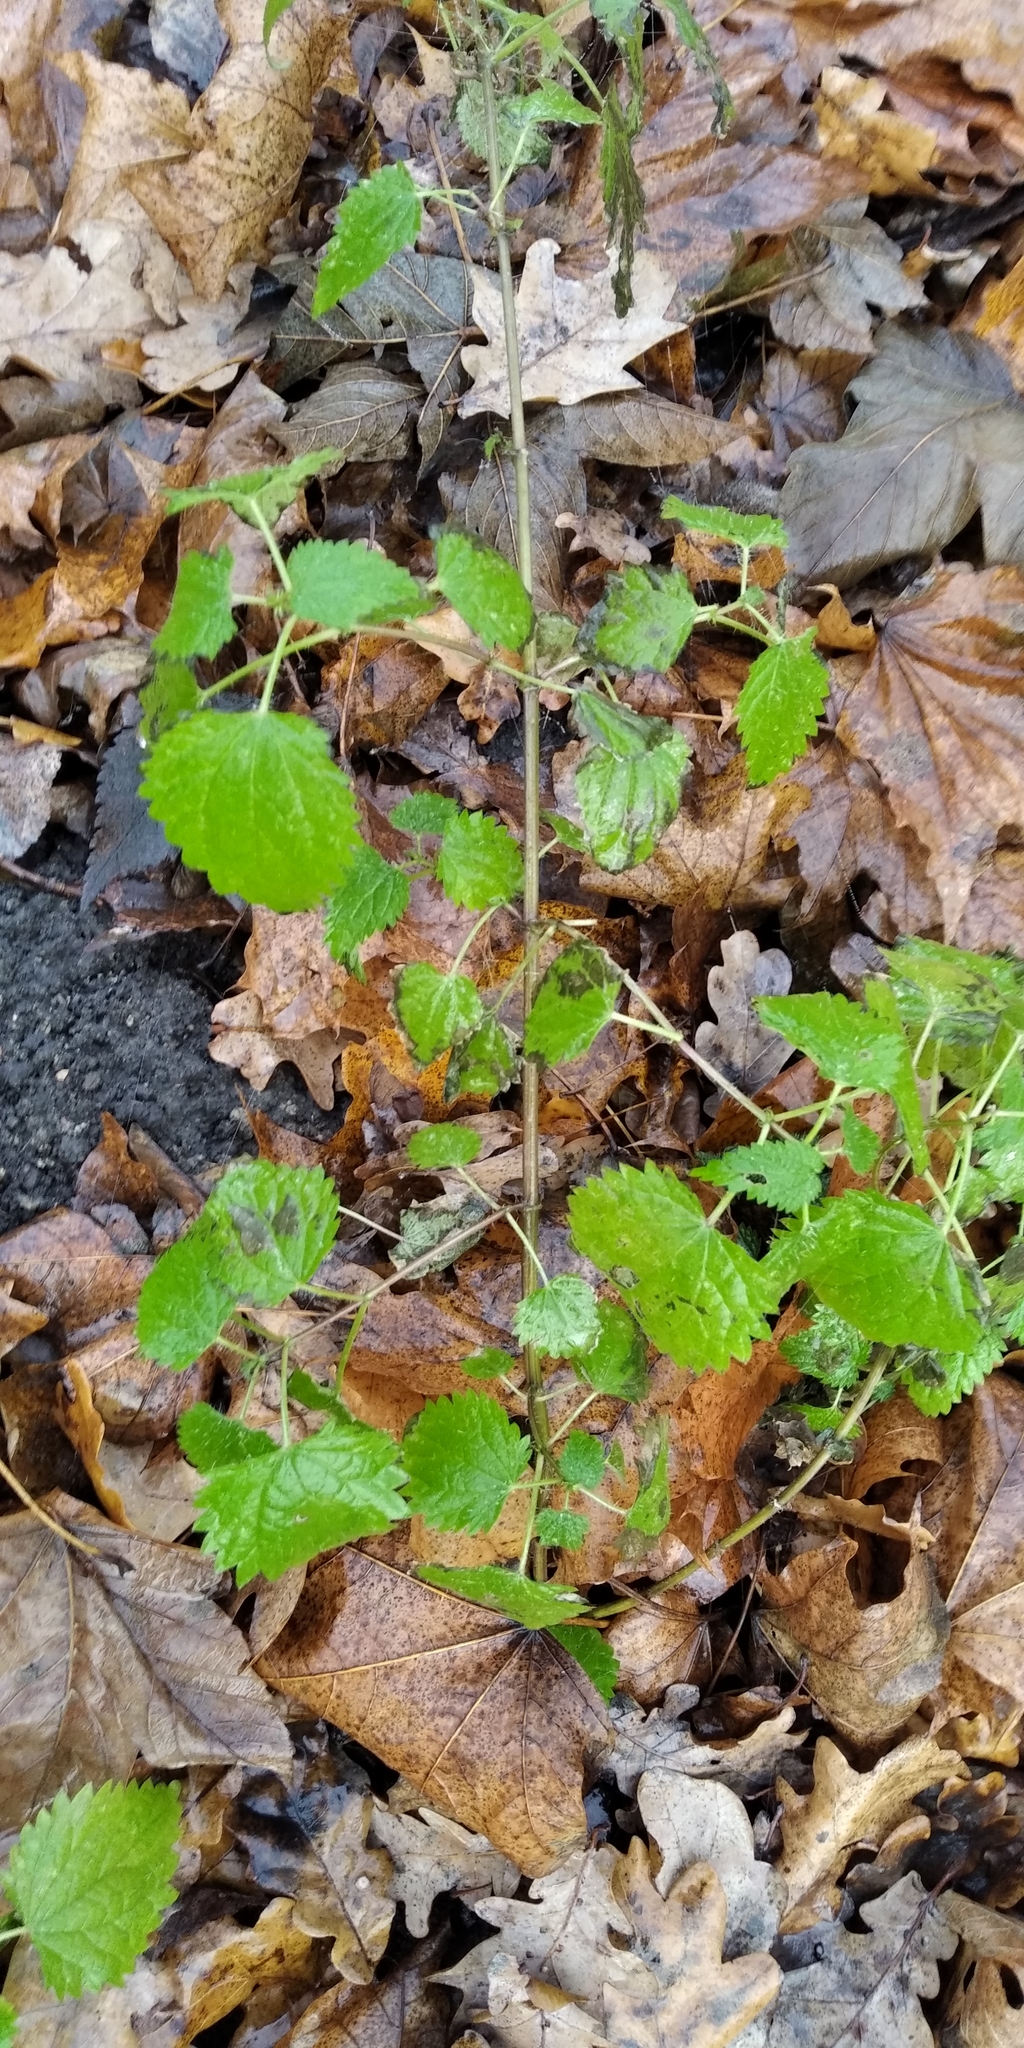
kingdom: Plantae
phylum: Tracheophyta
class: Magnoliopsida
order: Rosales
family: Urticaceae
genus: Urtica
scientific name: Urtica dioica
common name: Common nettle
